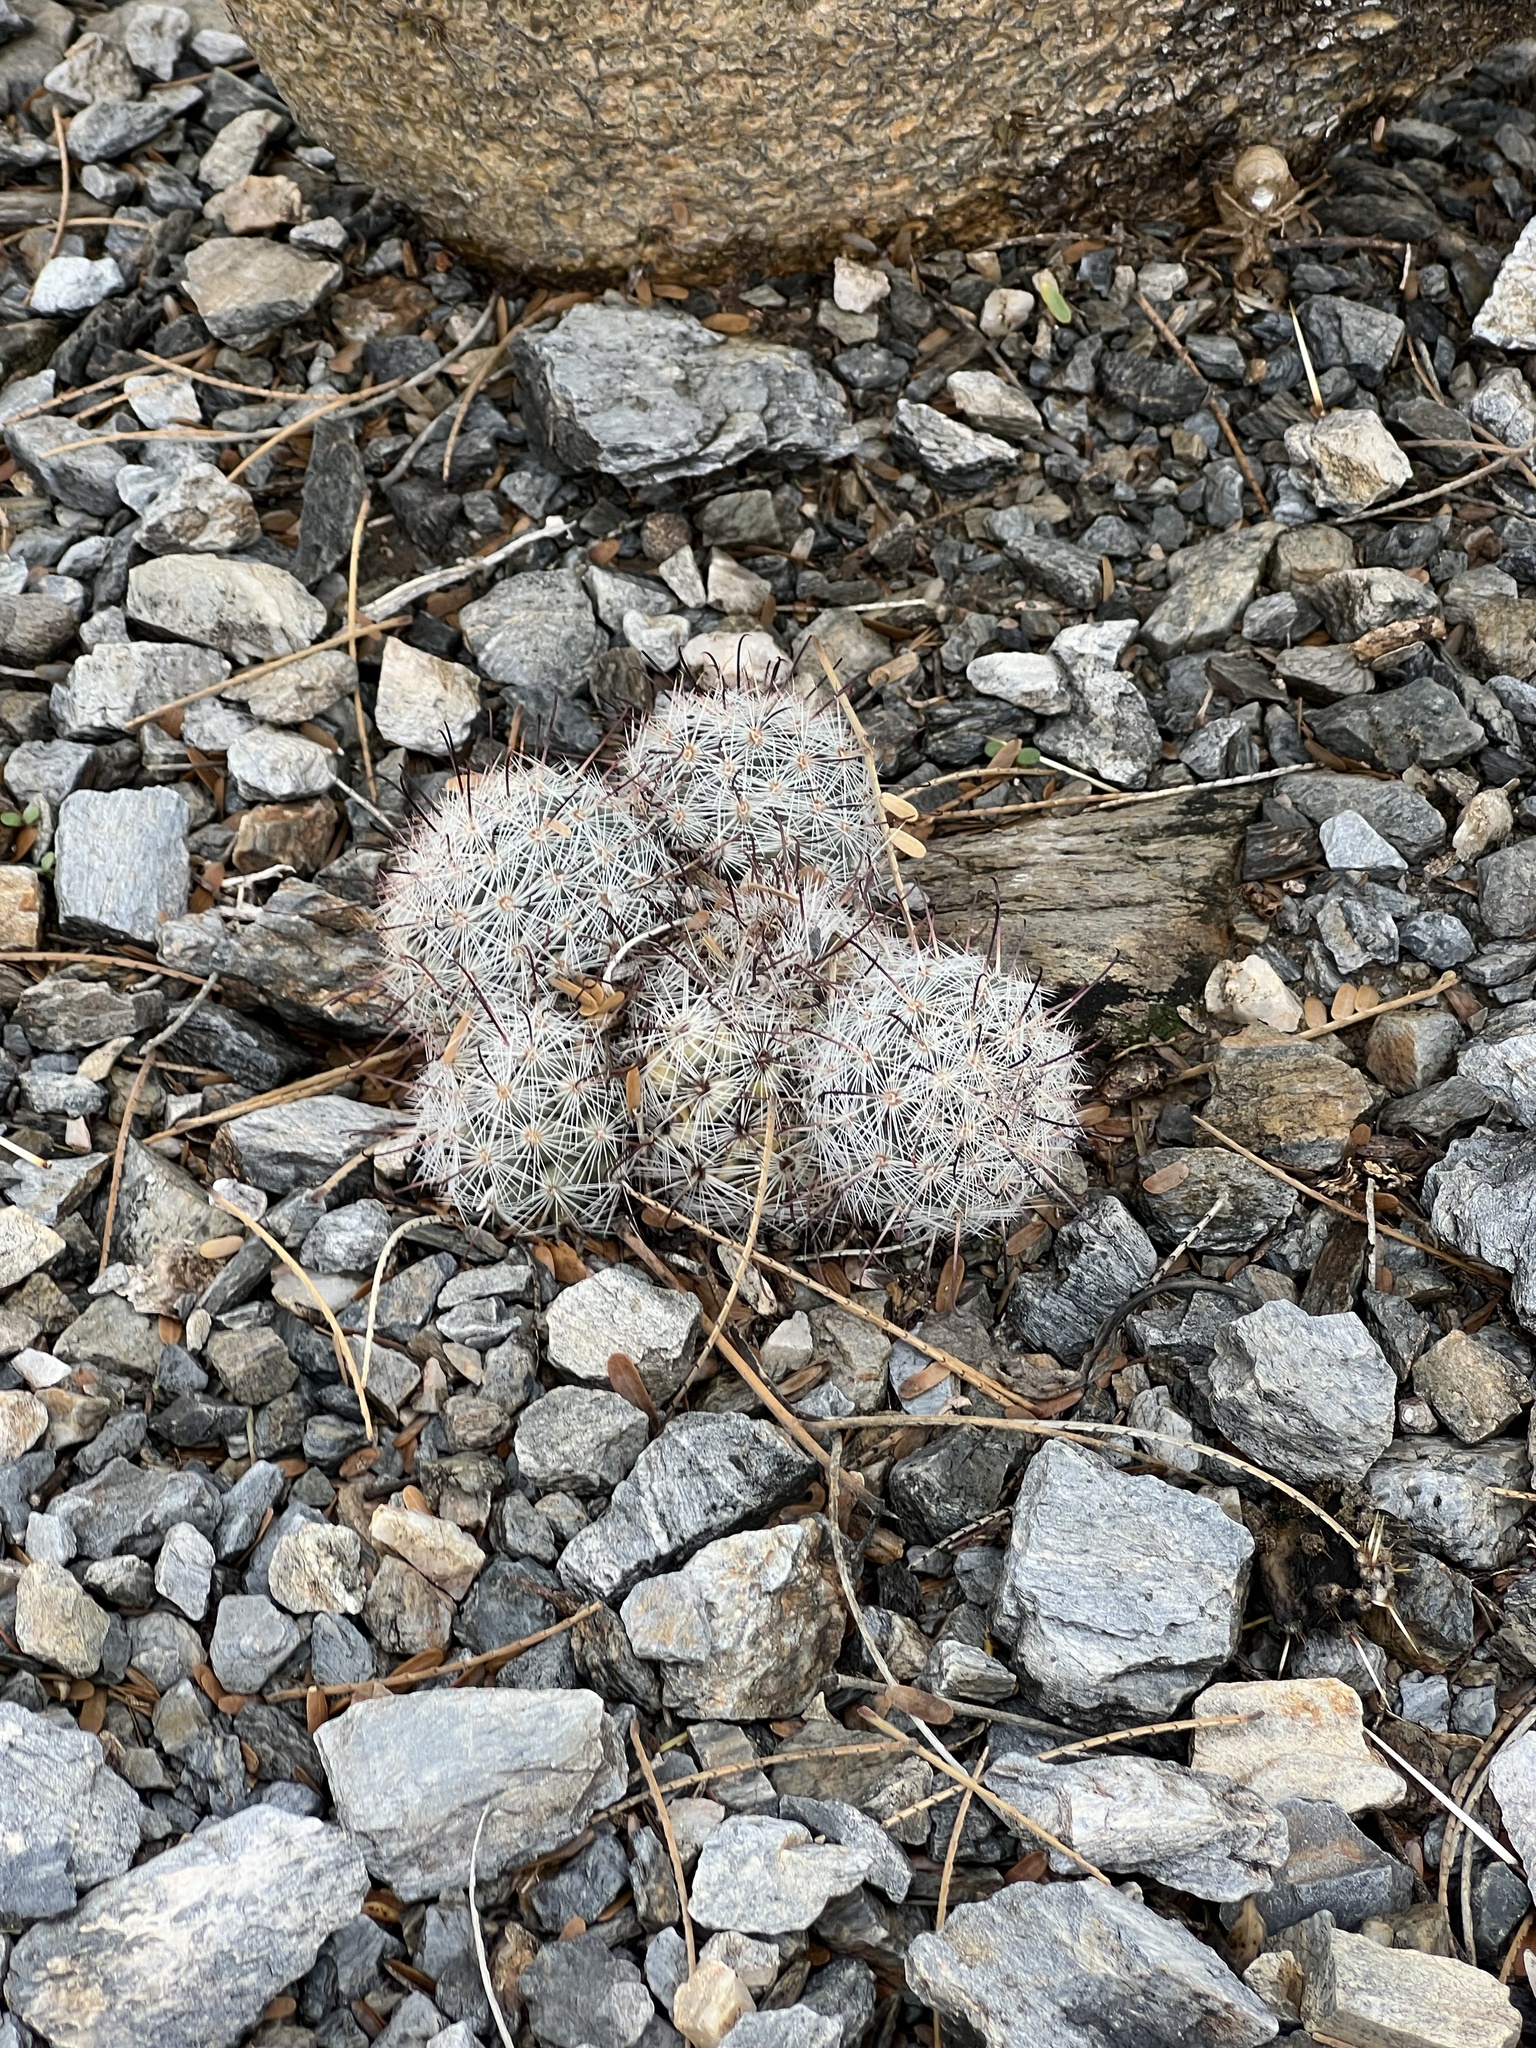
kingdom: Plantae
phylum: Tracheophyta
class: Magnoliopsida
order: Caryophyllales
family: Cactaceae
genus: Cochemiea
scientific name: Cochemiea grahamii
